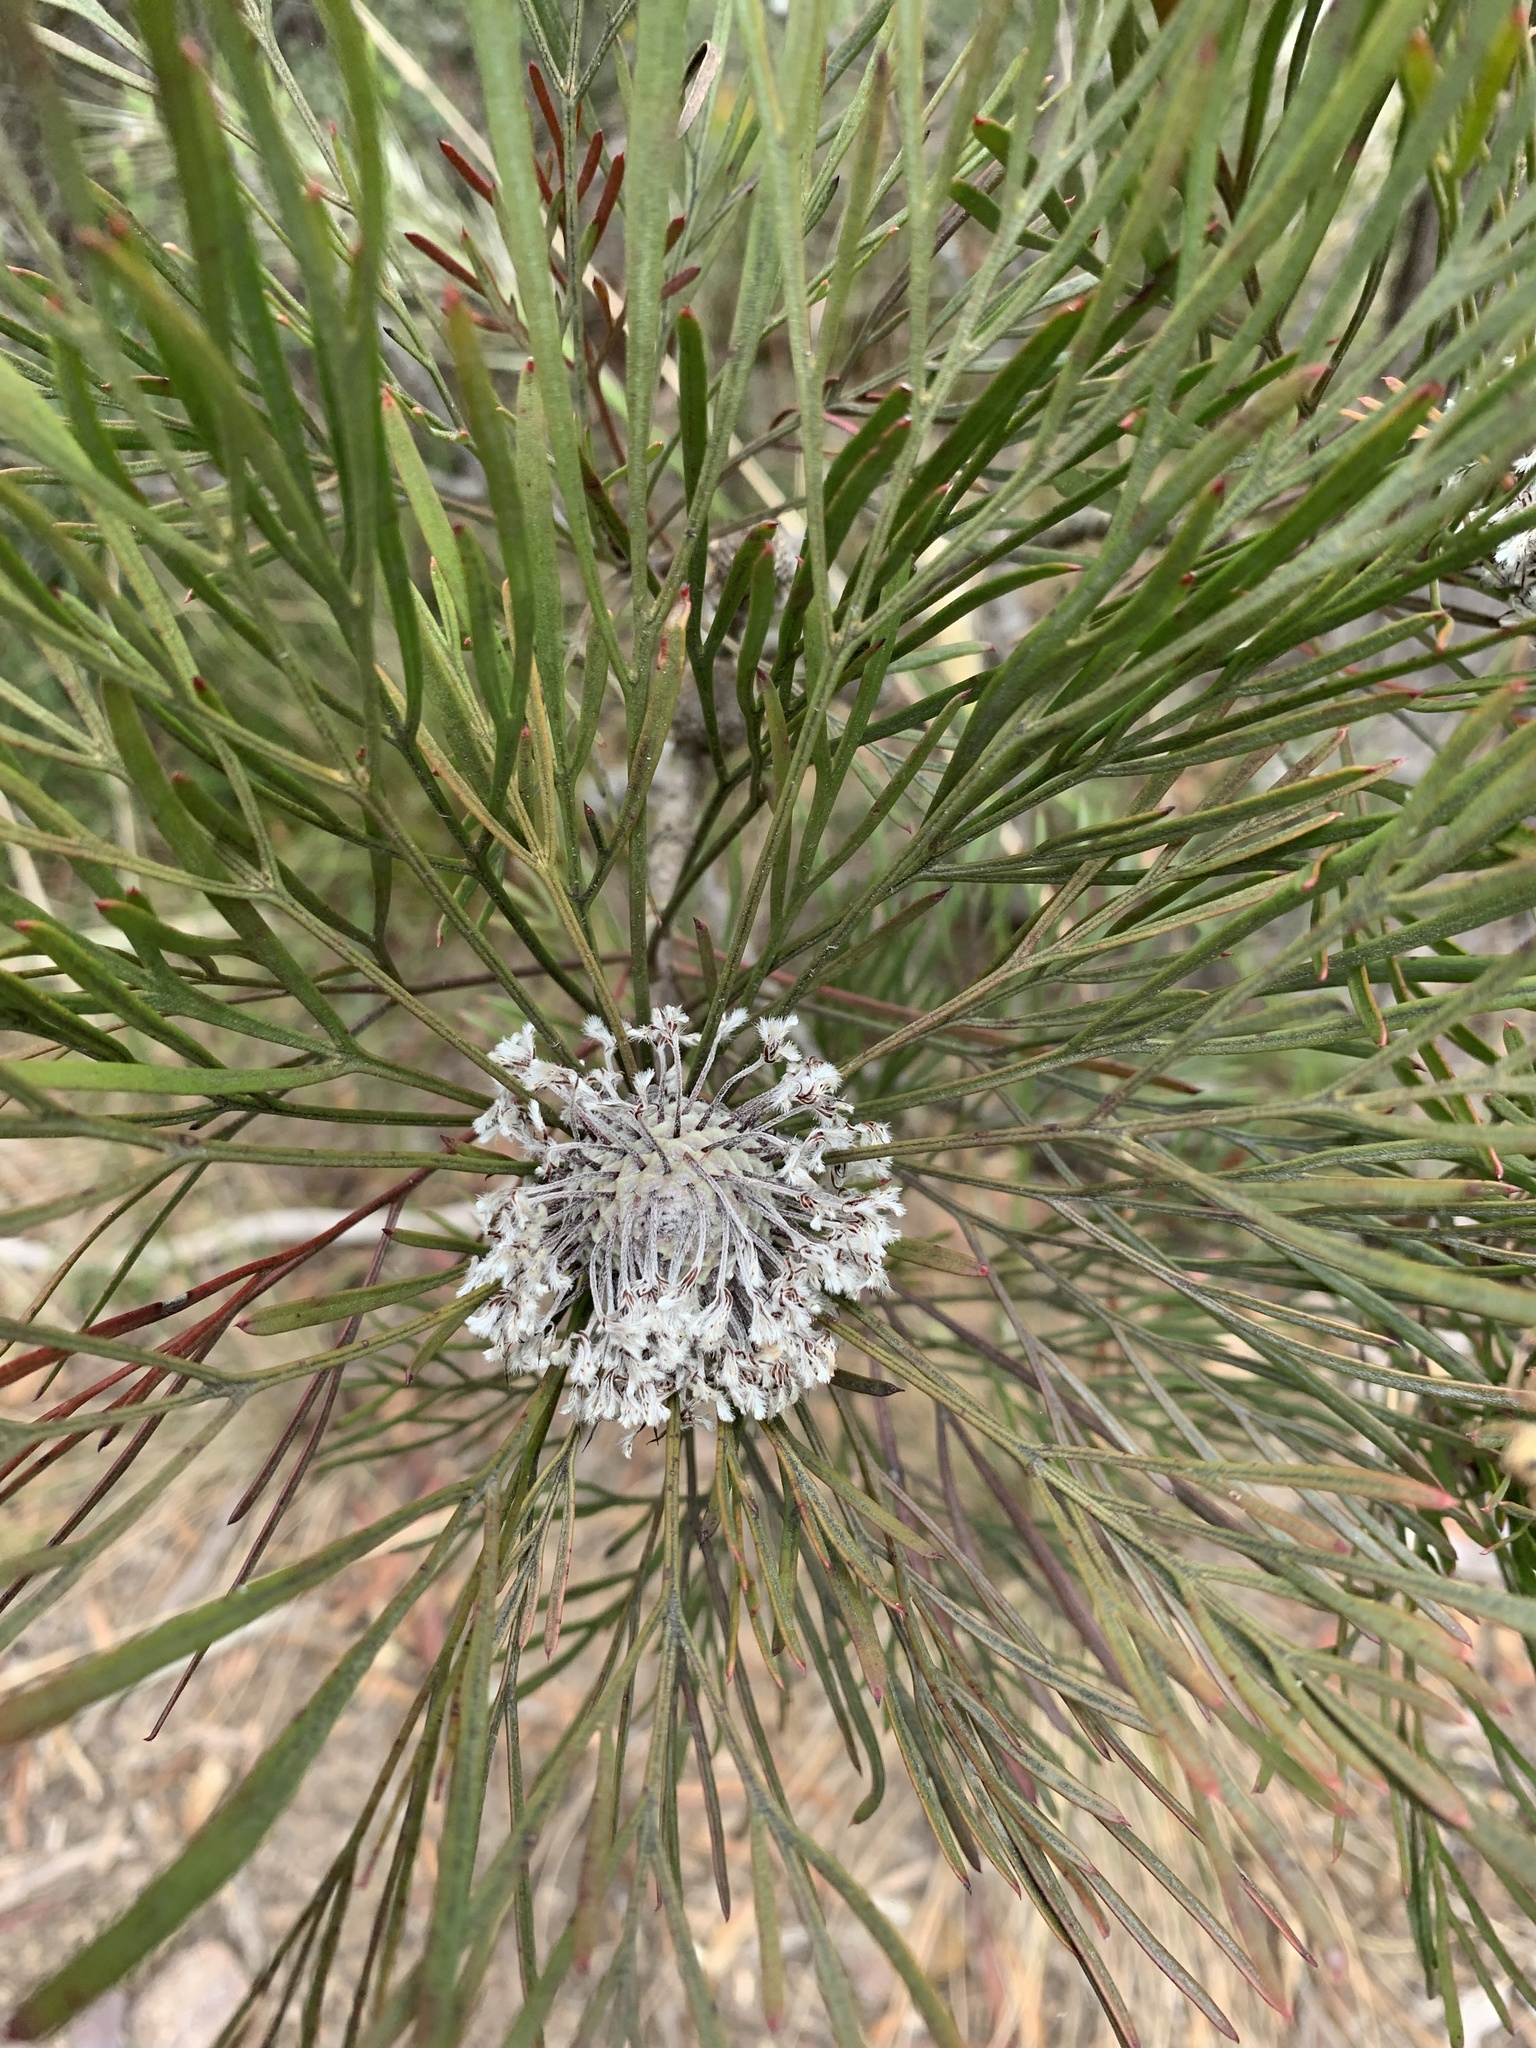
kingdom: Plantae
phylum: Tracheophyta
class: Magnoliopsida
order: Proteales
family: Proteaceae
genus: Isopogon
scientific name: Isopogon dawsonii
